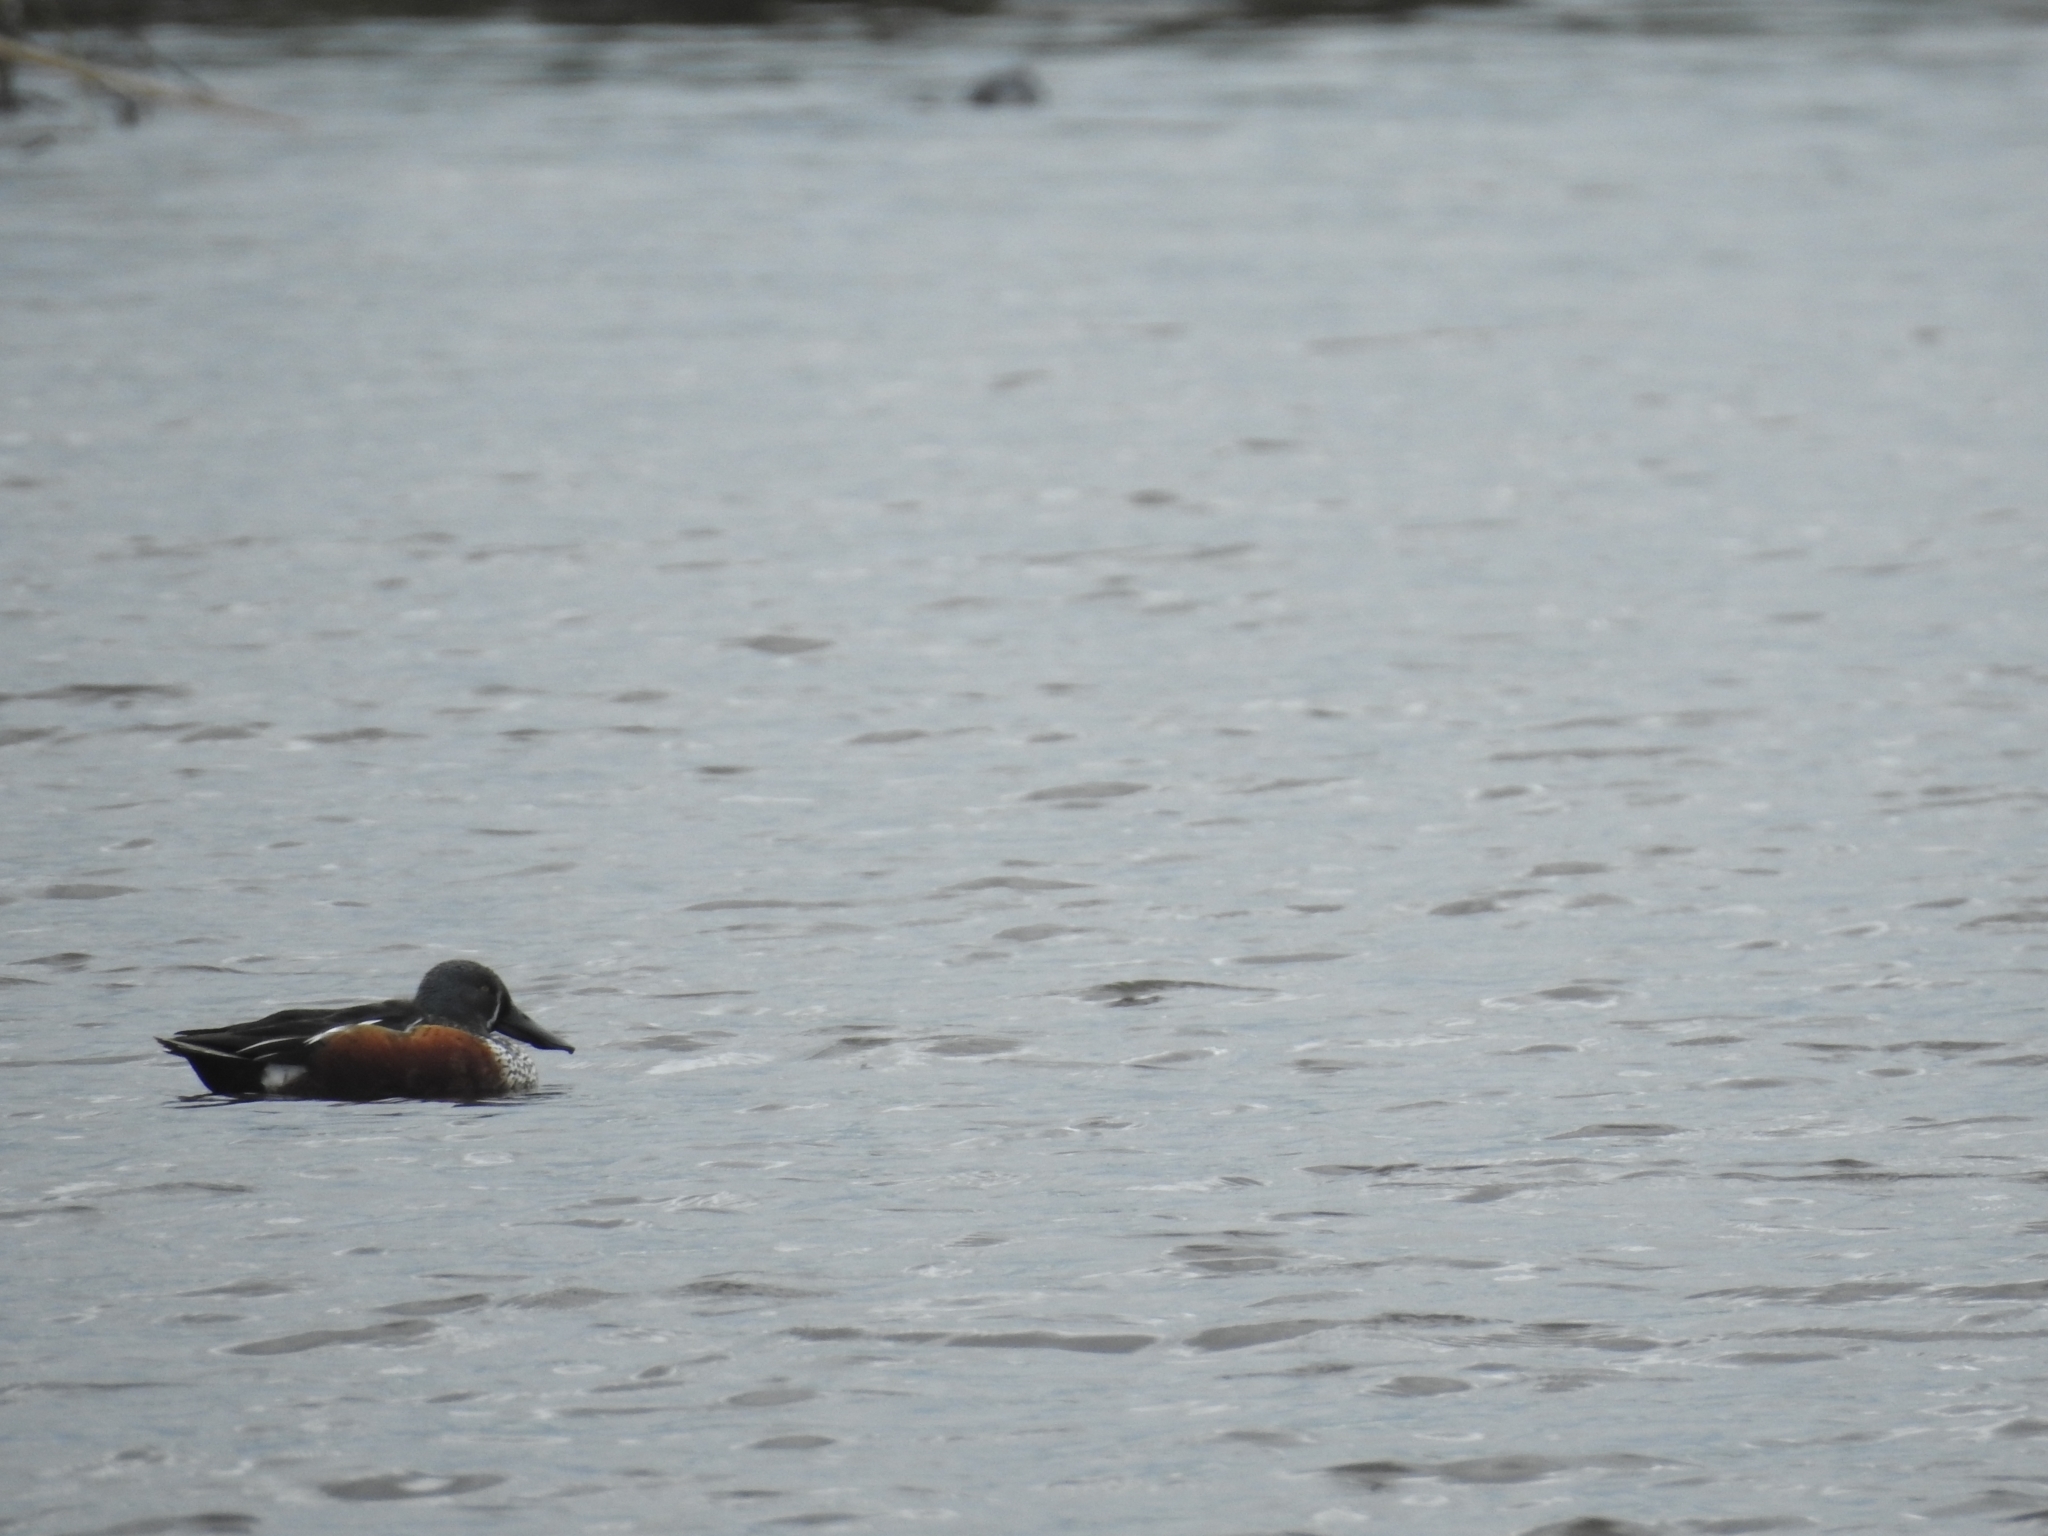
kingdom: Animalia
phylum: Chordata
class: Aves
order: Anseriformes
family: Anatidae
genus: Spatula
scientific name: Spatula rhynchotis
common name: Australian shoveler
